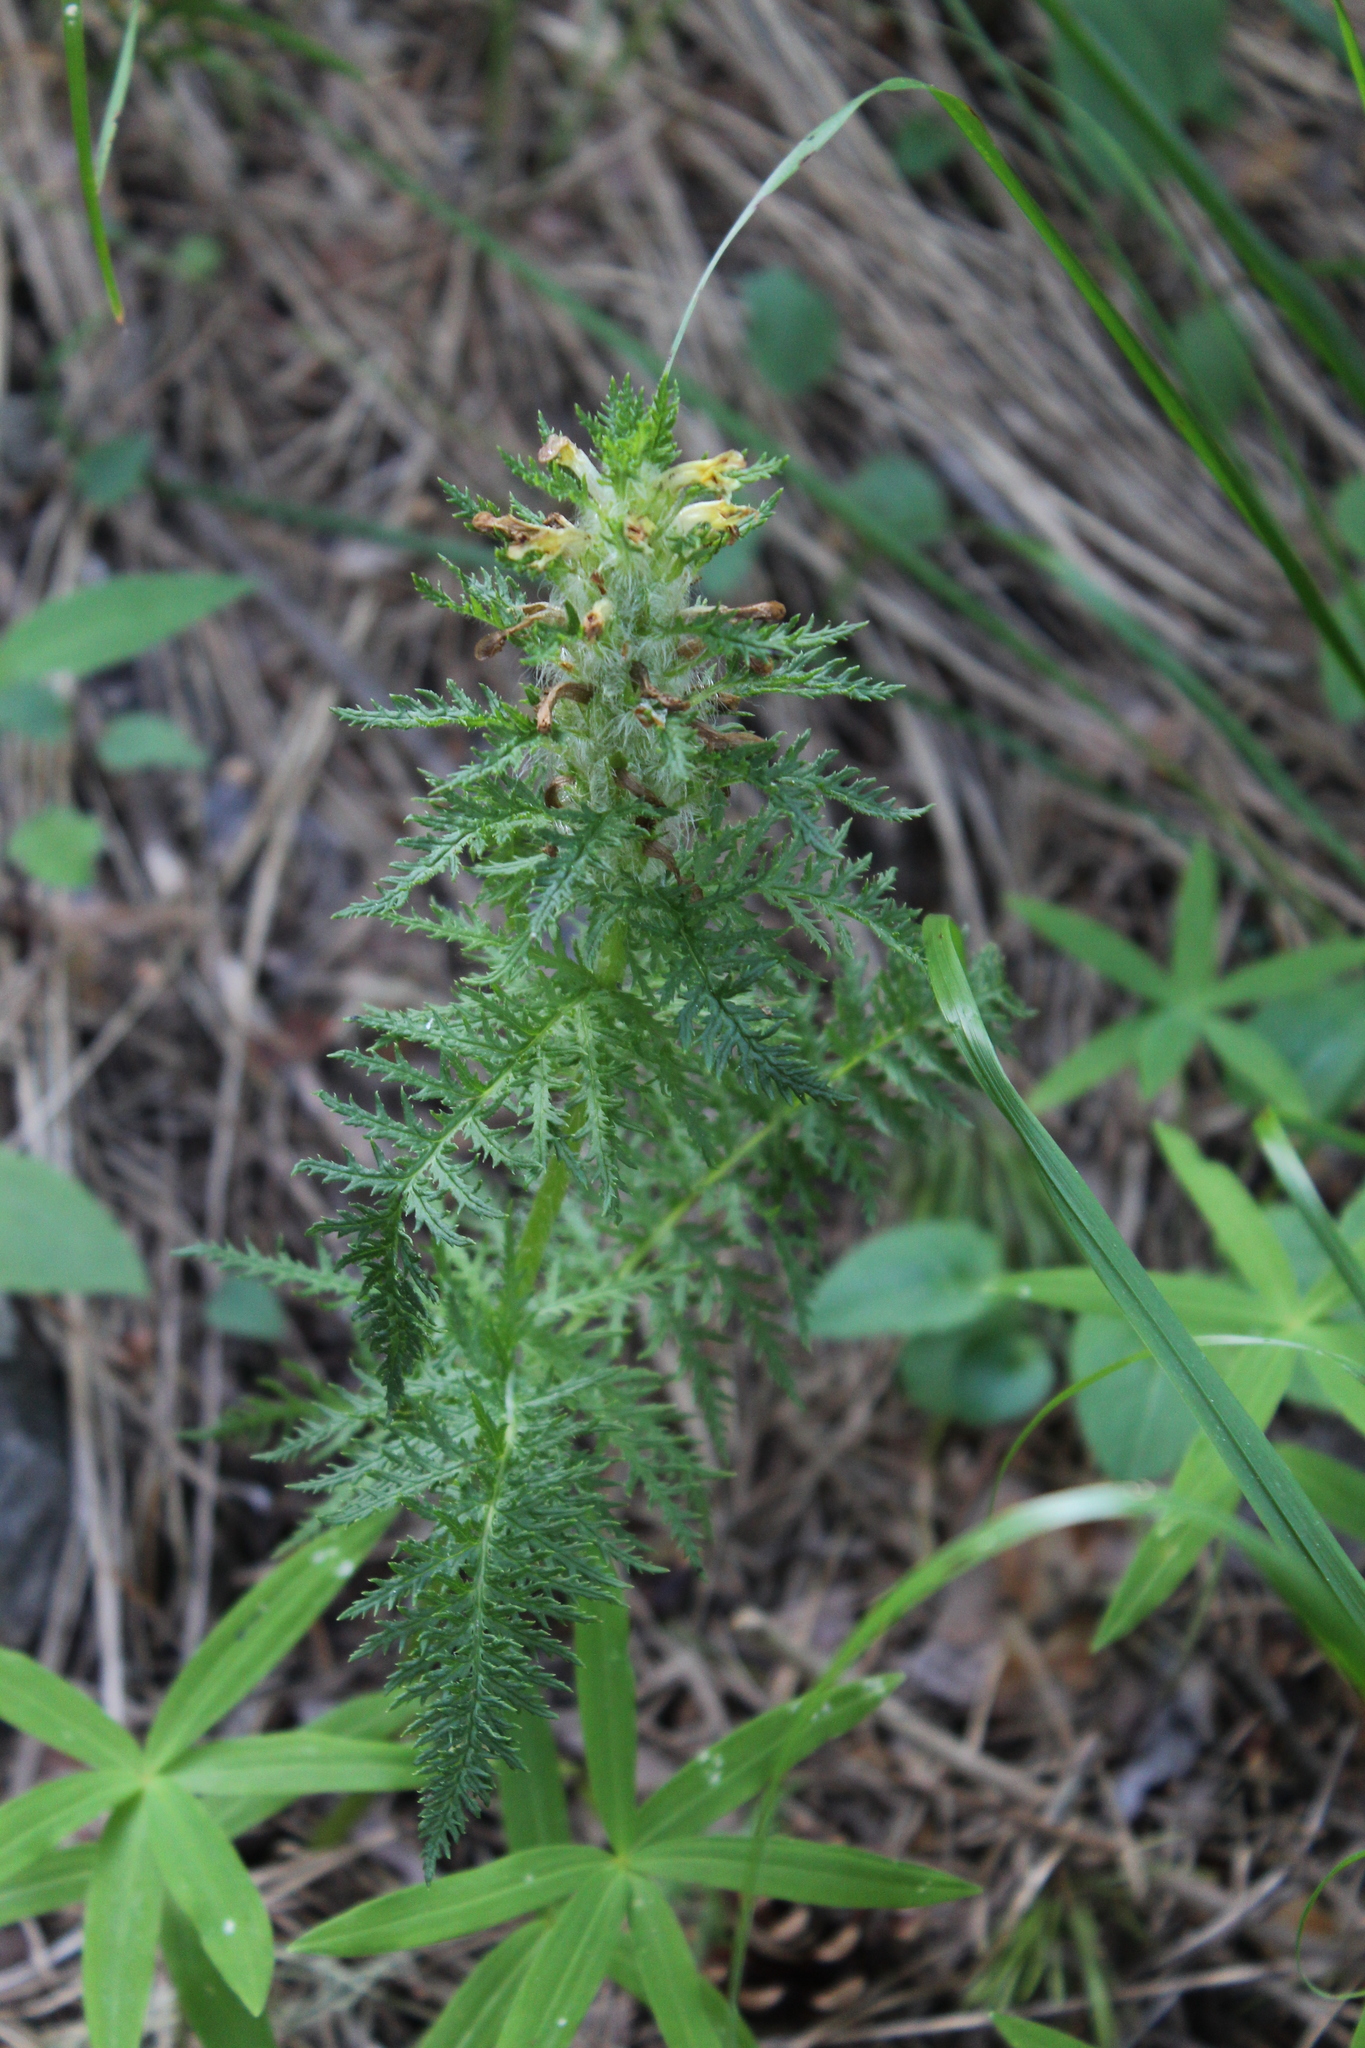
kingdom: Plantae
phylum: Tracheophyta
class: Magnoliopsida
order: Lamiales
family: Orobanchaceae
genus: Pedicularis
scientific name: Pedicularis condensata
